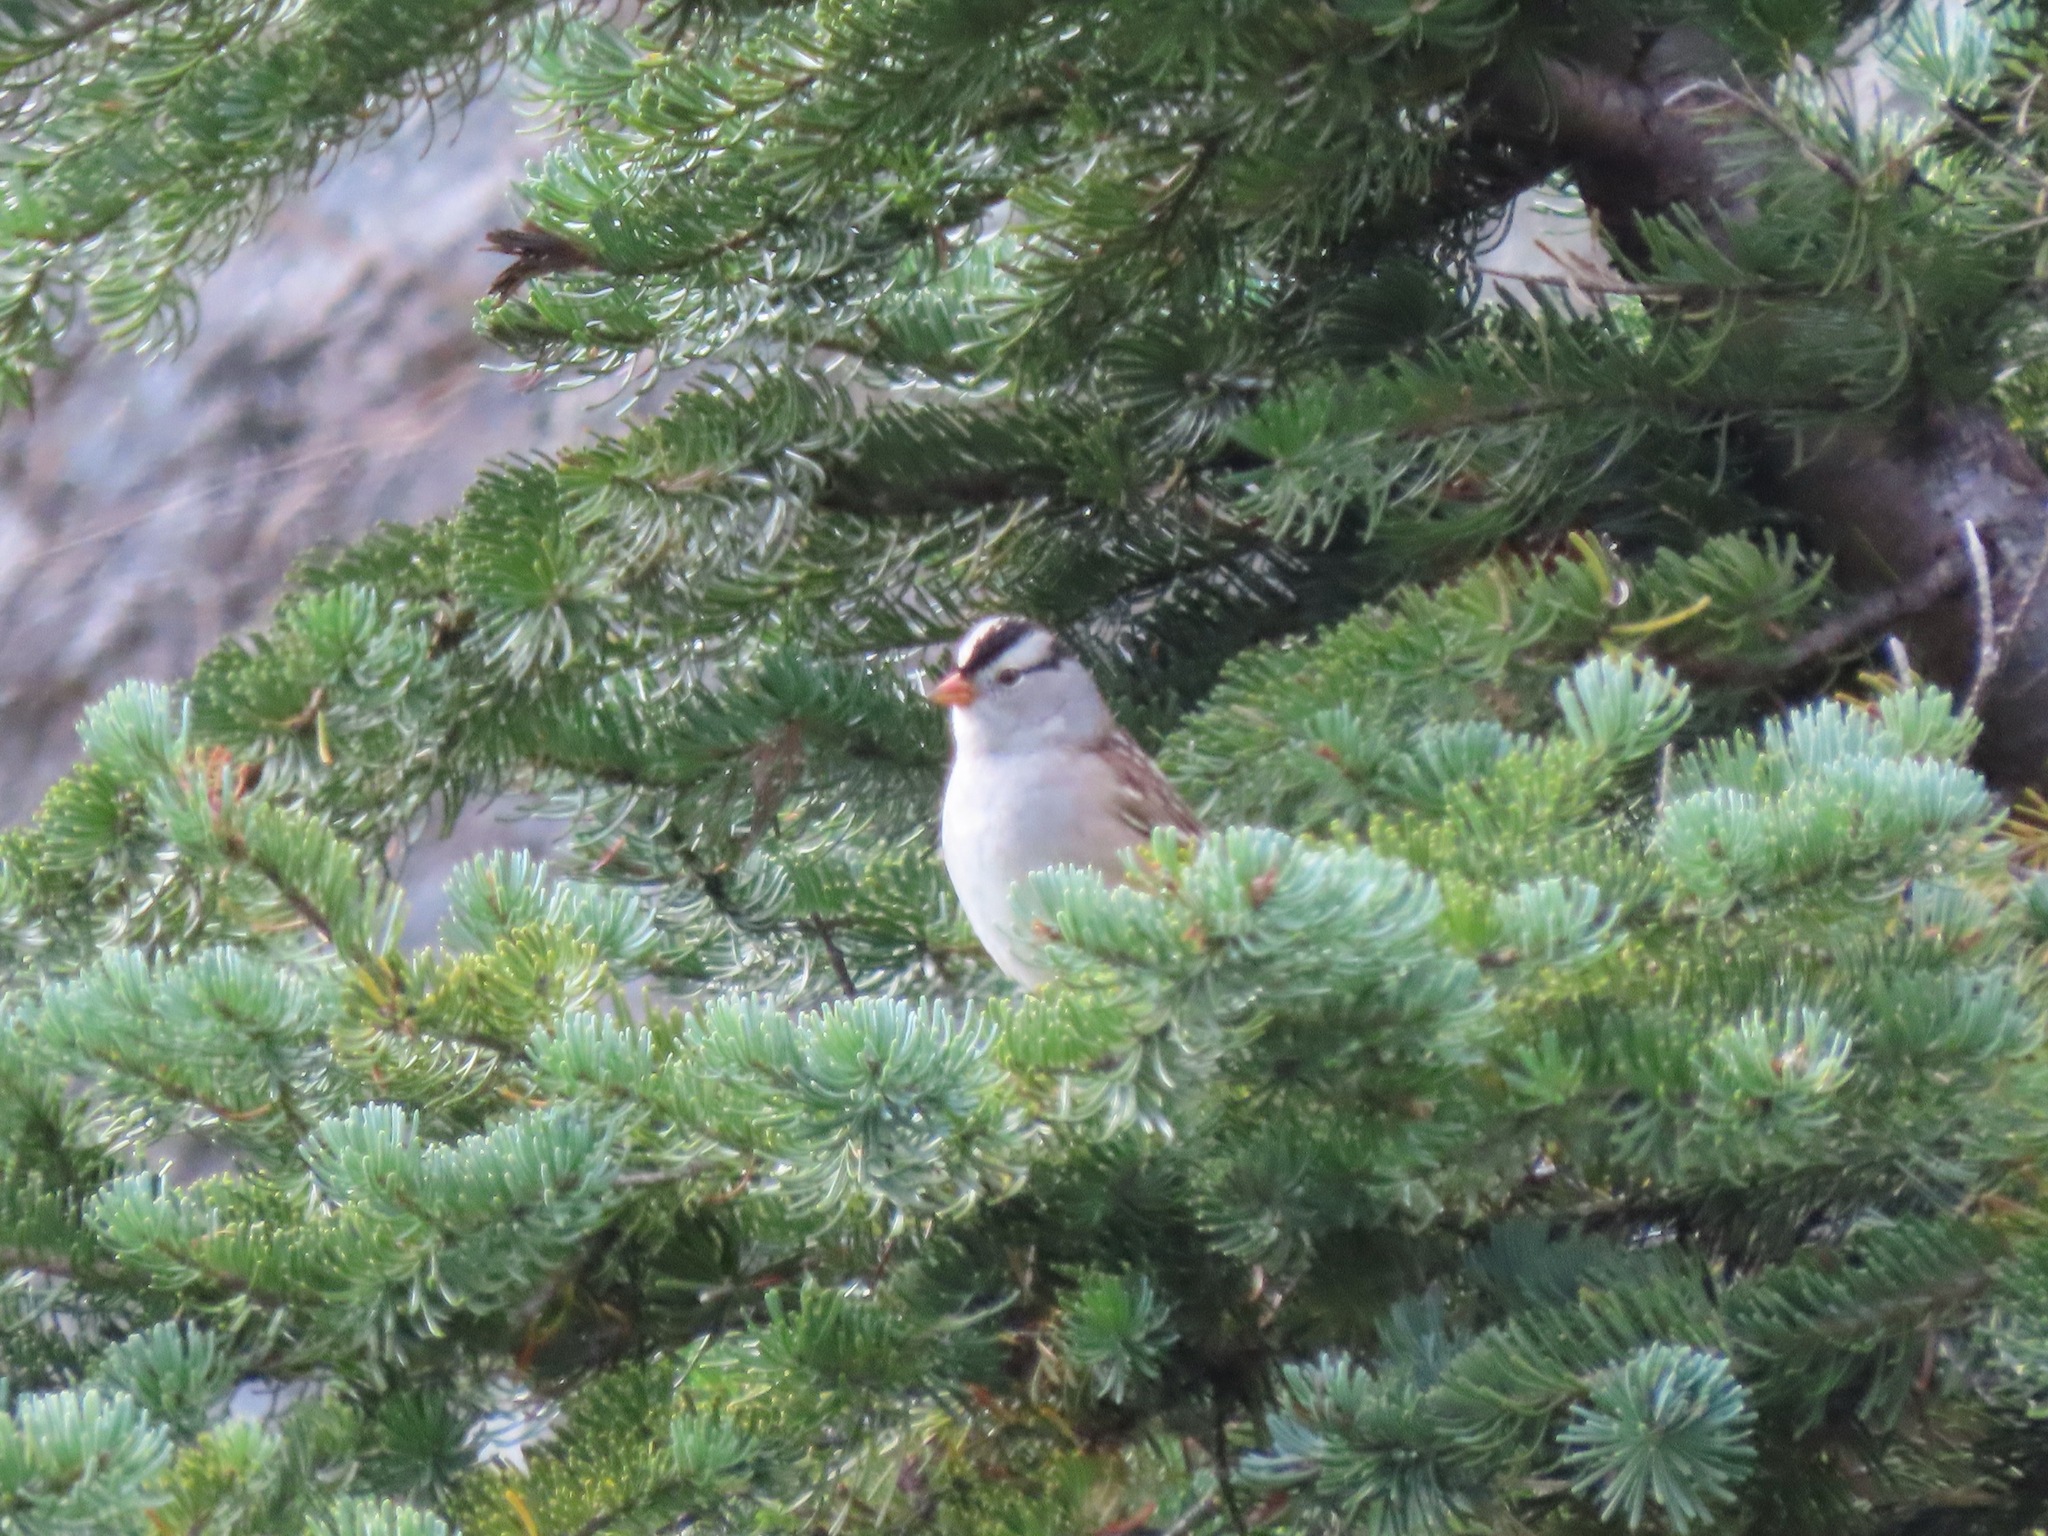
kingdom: Animalia
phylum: Chordata
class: Aves
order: Passeriformes
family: Passerellidae
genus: Zonotrichia
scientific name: Zonotrichia leucophrys
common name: White-crowned sparrow
